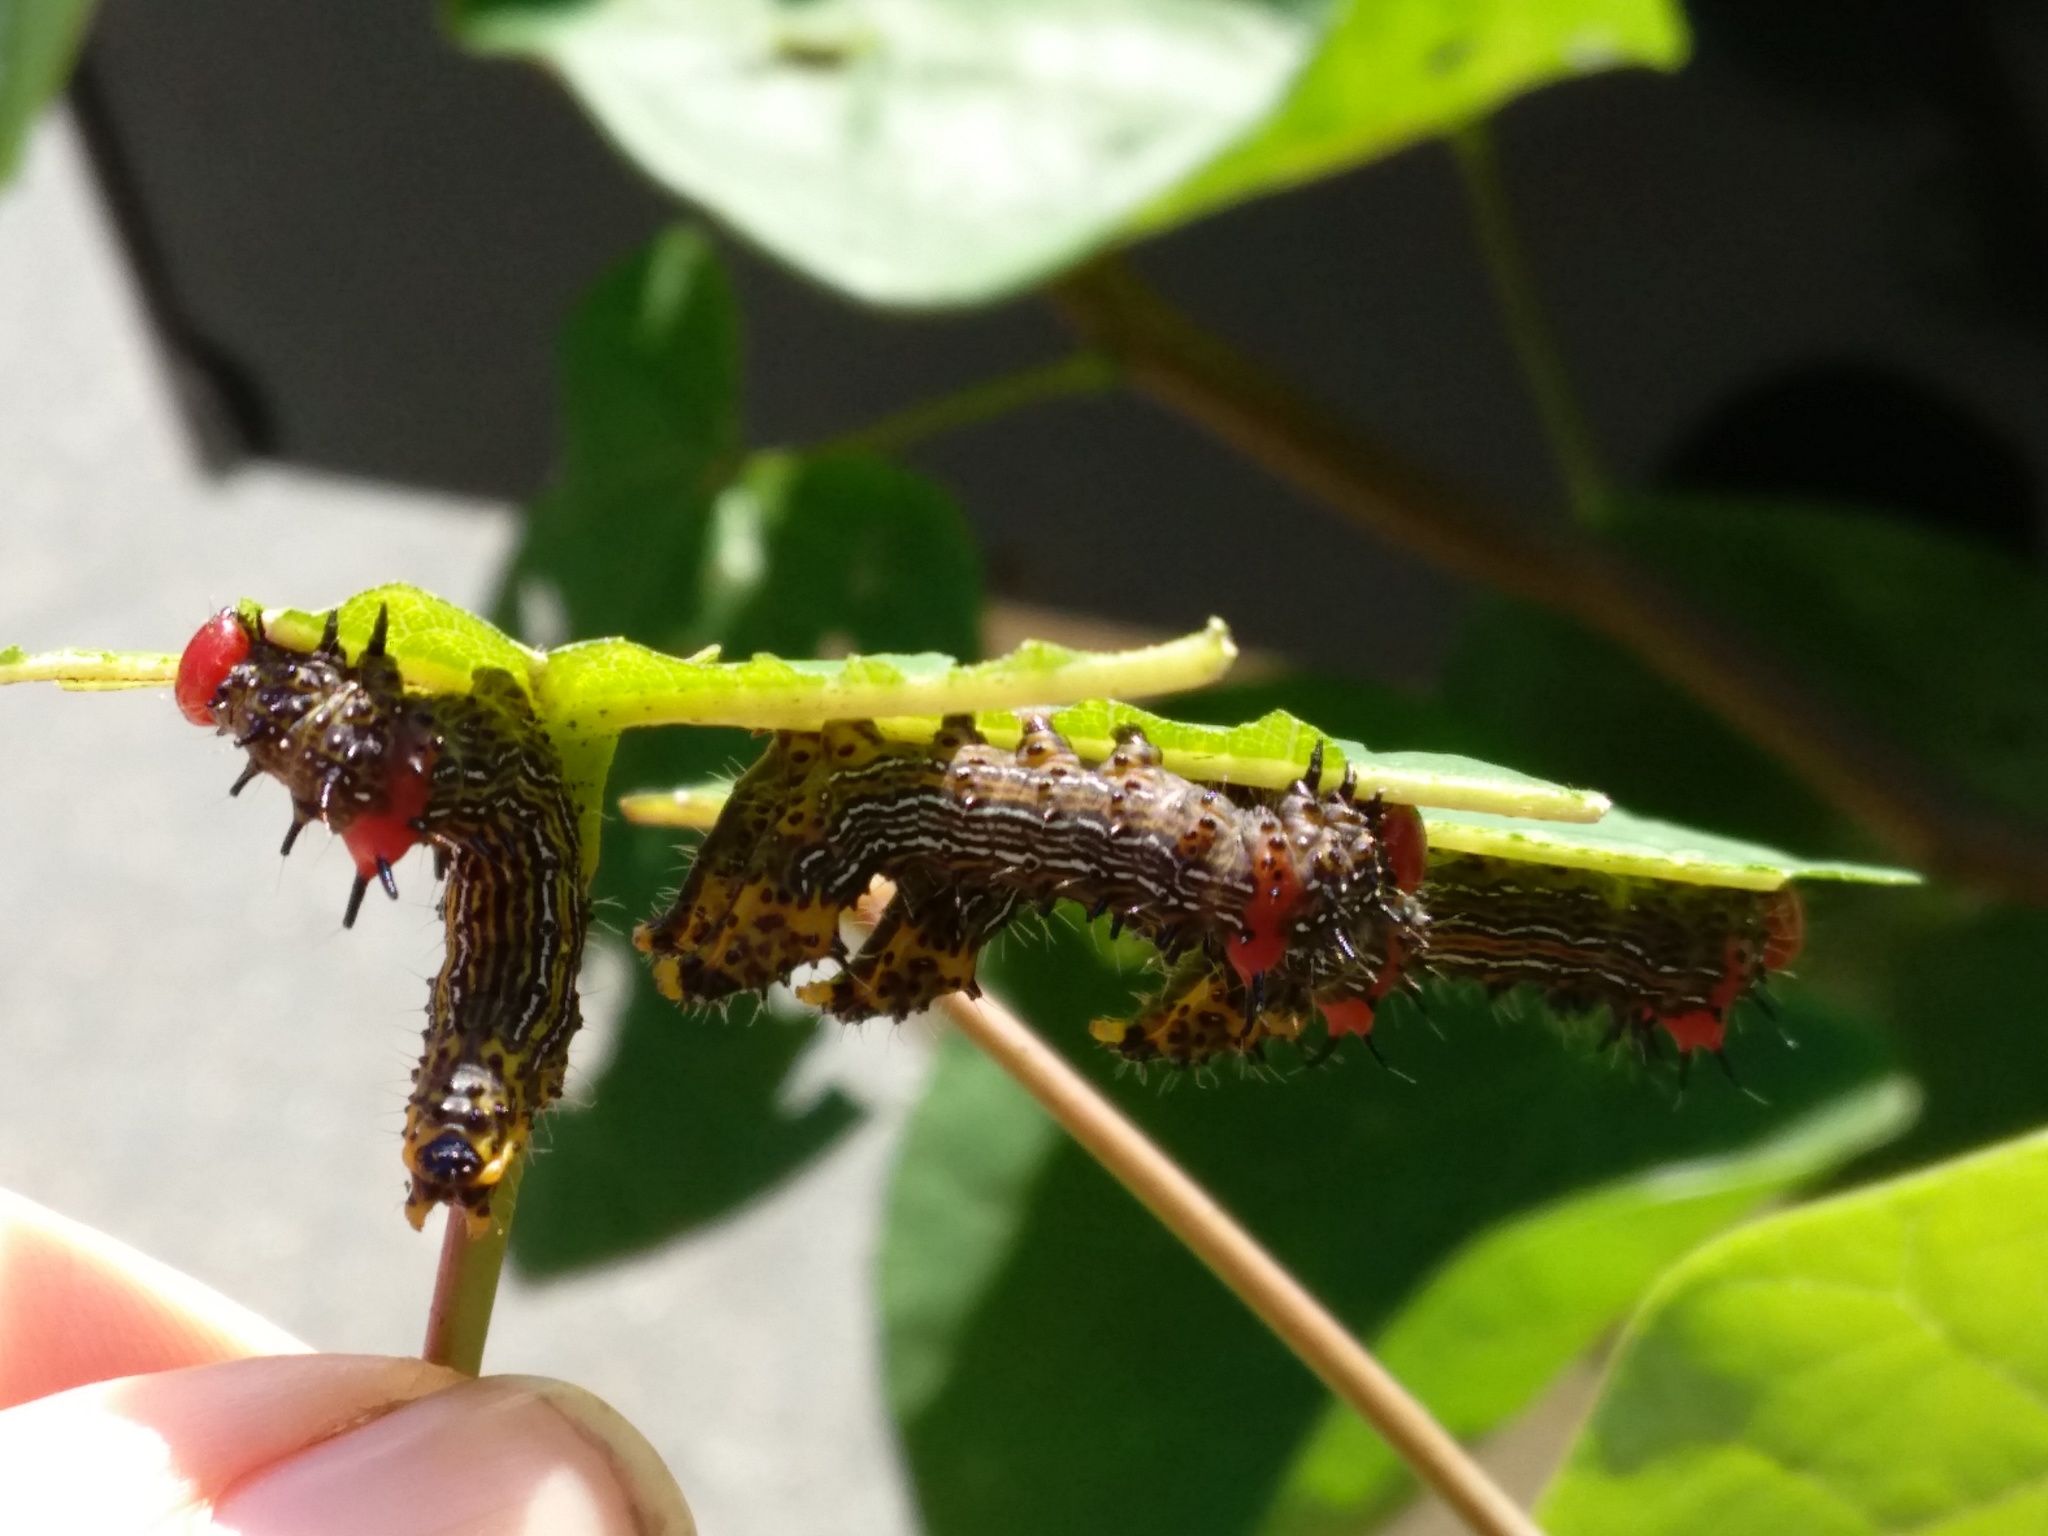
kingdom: Animalia
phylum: Arthropoda
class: Insecta
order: Lepidoptera
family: Notodontidae
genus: Schizura
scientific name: Schizura
